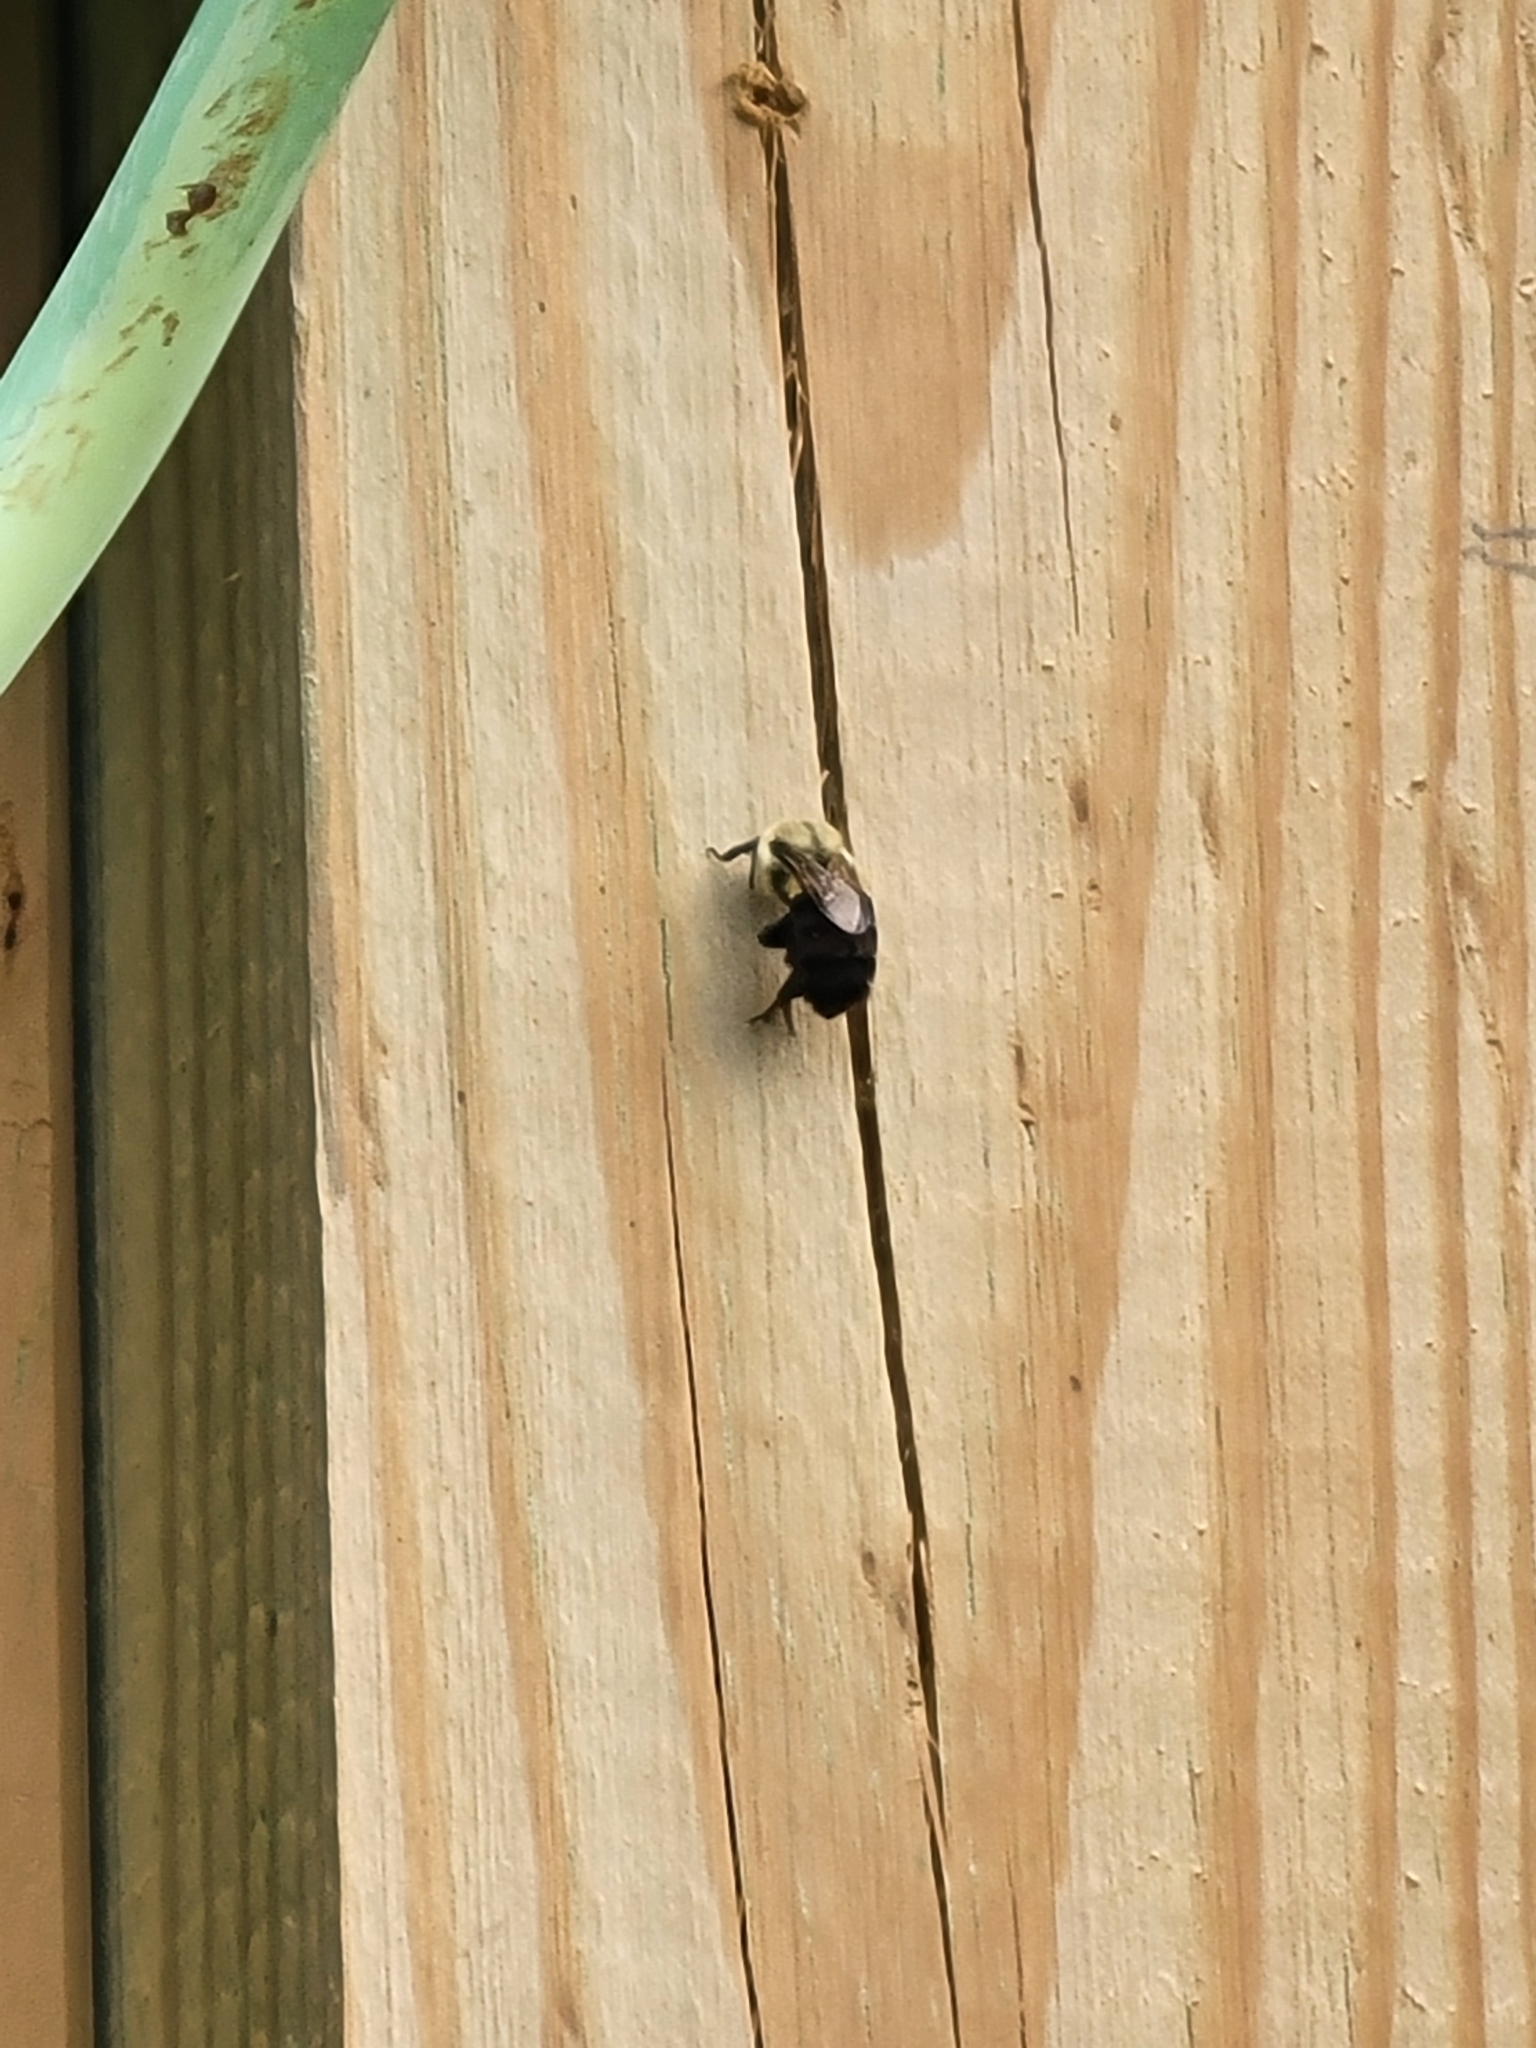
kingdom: Animalia
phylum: Arthropoda
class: Insecta
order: Hymenoptera
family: Apidae
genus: Bombus
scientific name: Bombus impatiens
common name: Common eastern bumble bee
